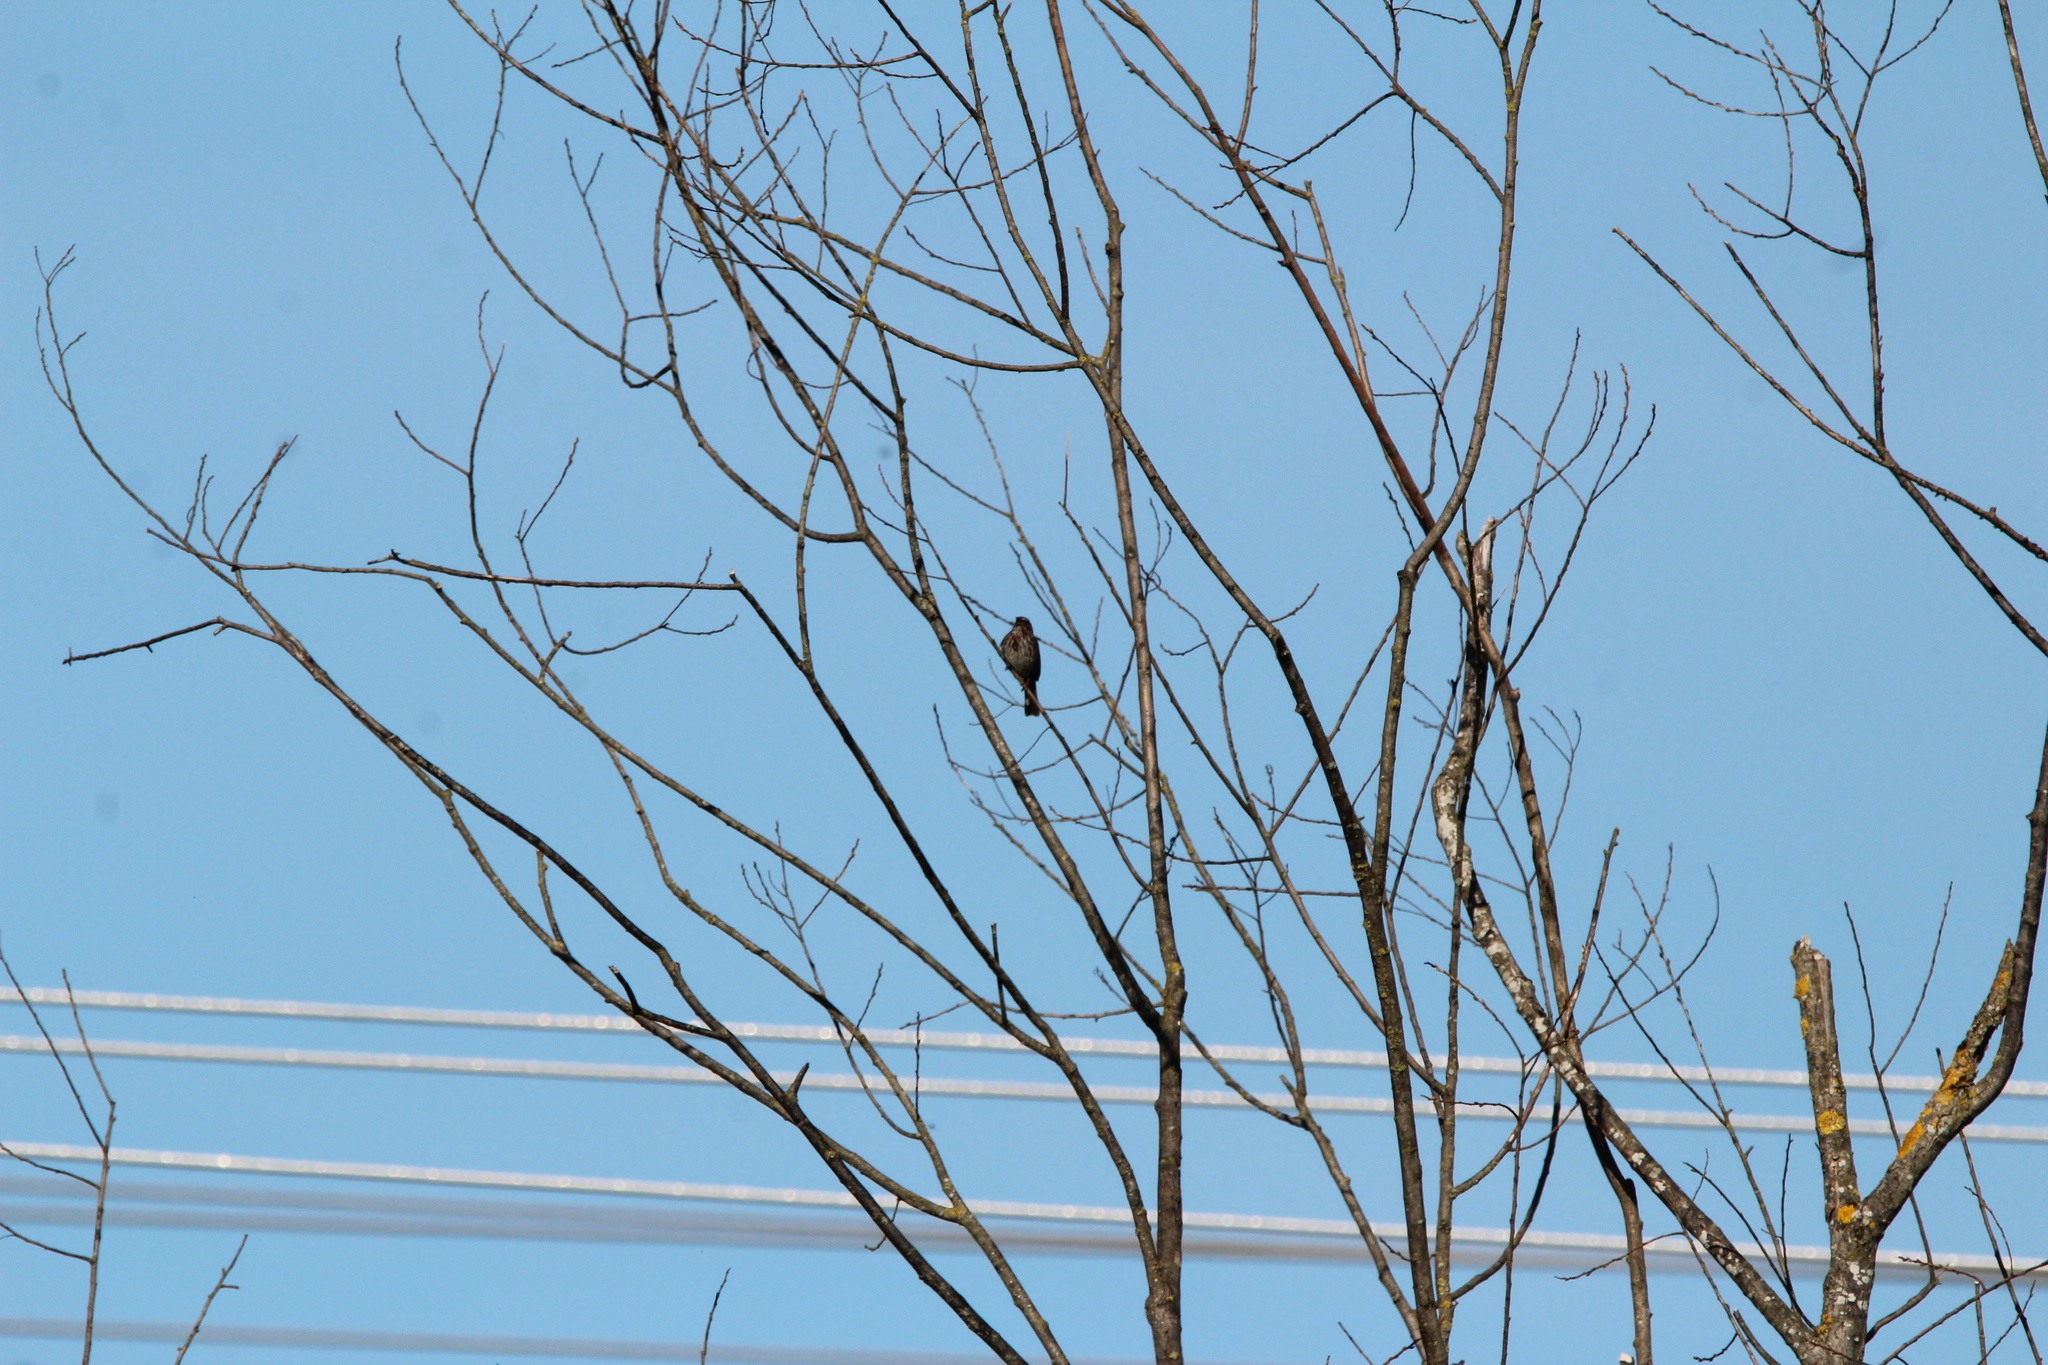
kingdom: Animalia
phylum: Chordata
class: Aves
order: Passeriformes
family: Passerellidae
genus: Melospiza
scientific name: Melospiza melodia
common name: Song sparrow
